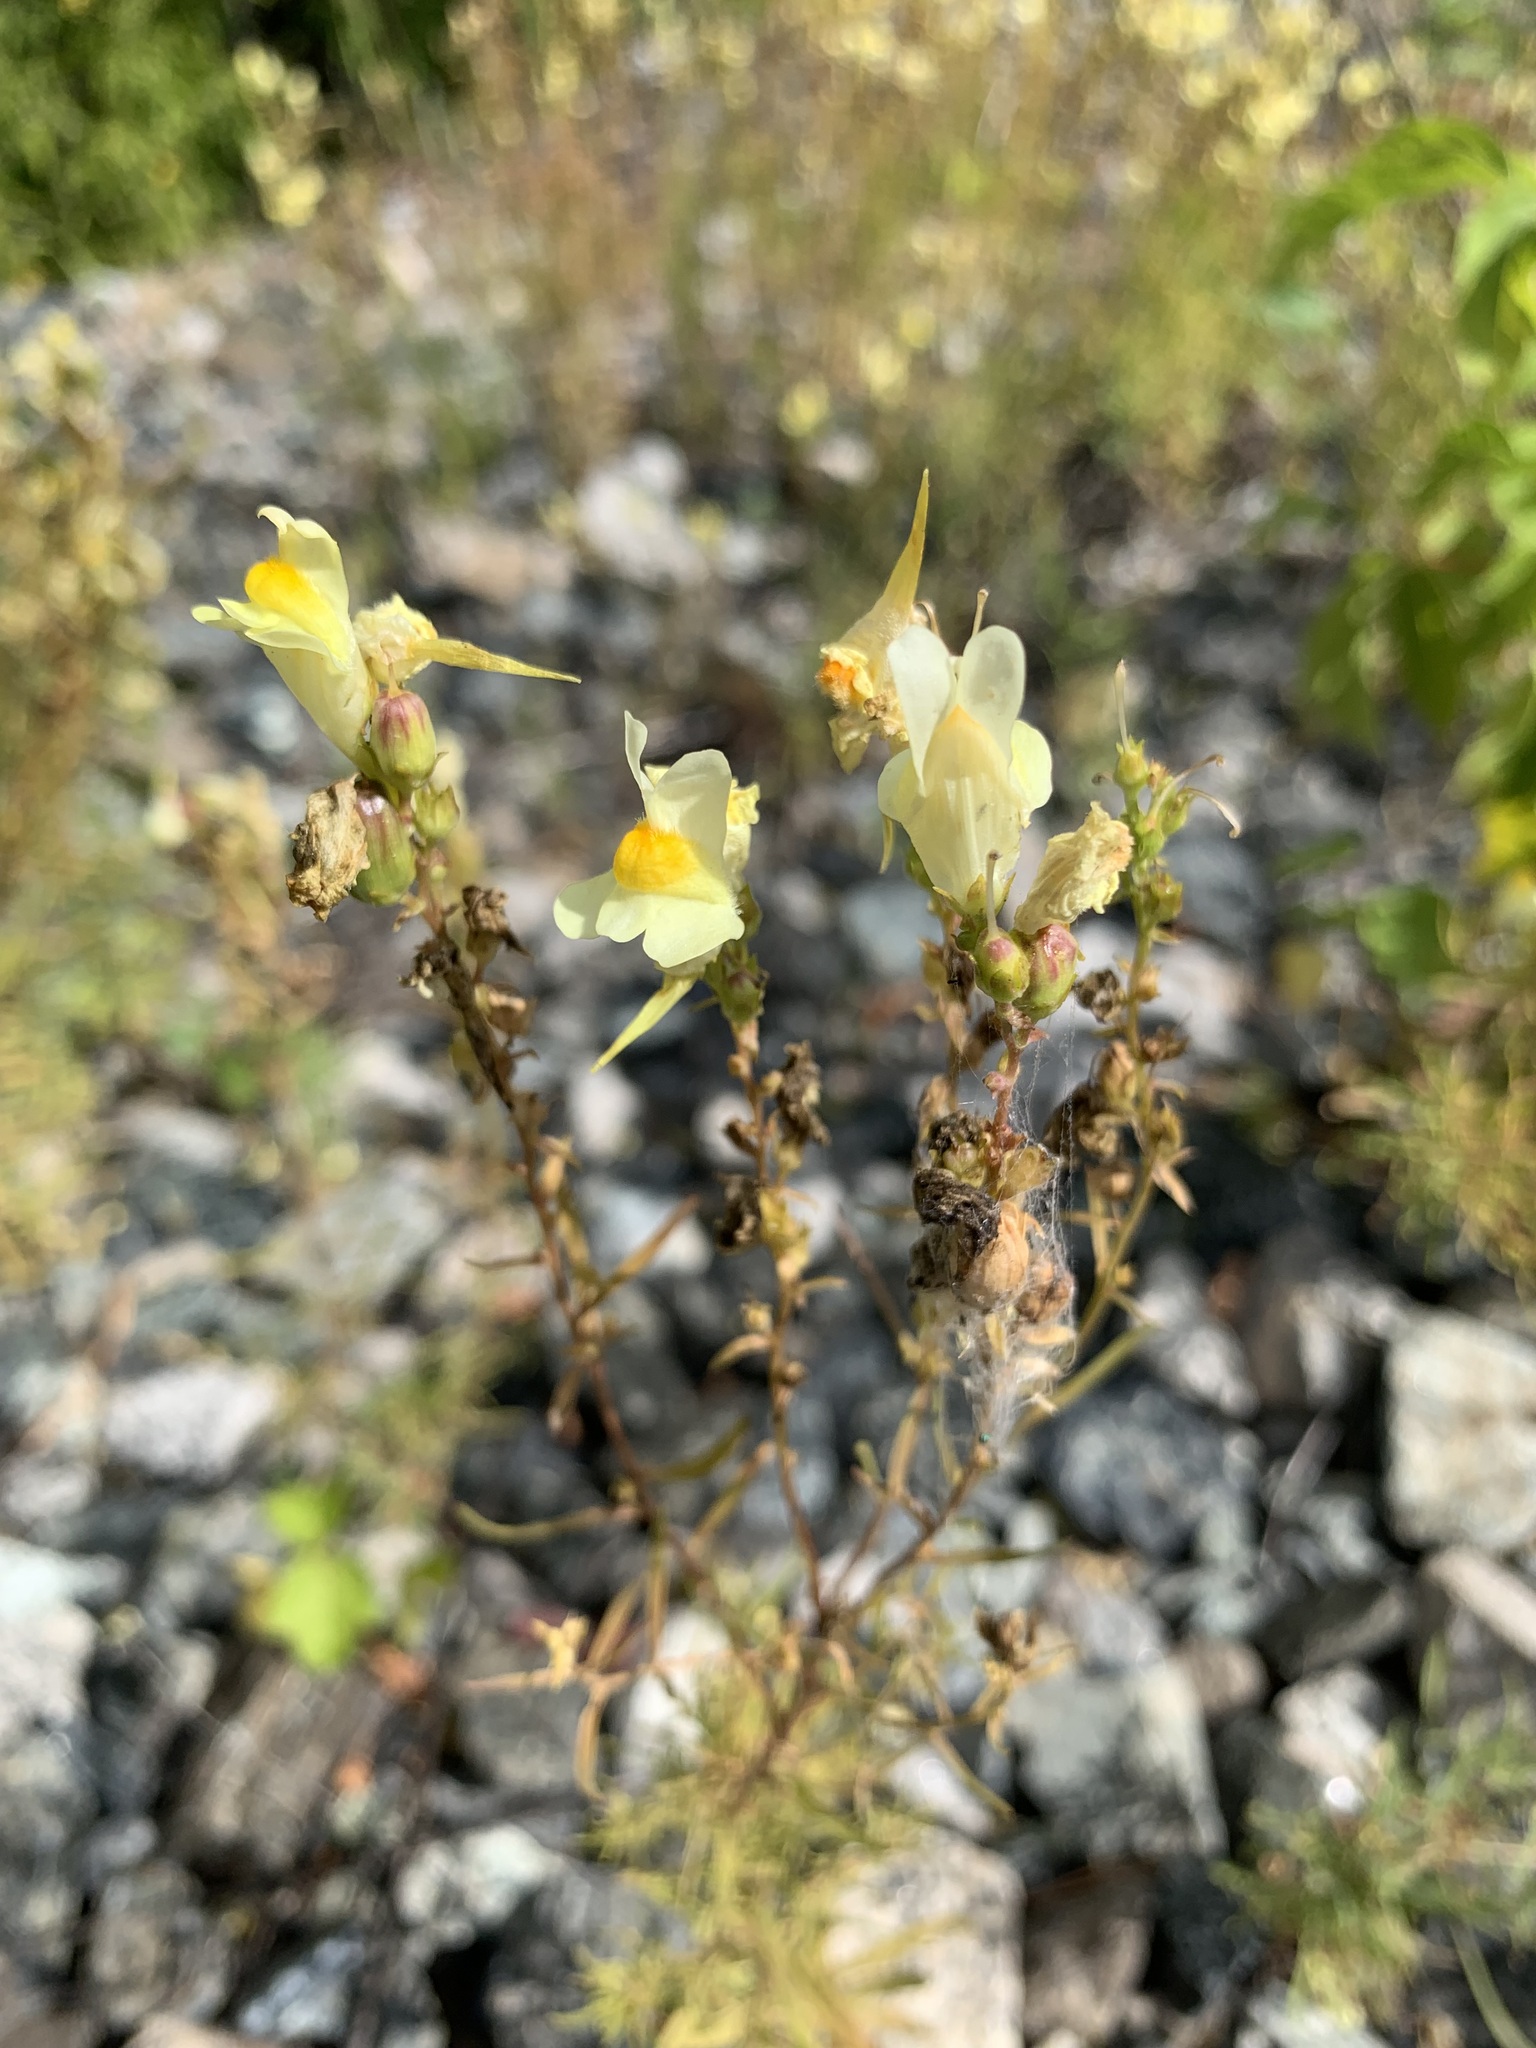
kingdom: Plantae
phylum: Tracheophyta
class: Magnoliopsida
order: Lamiales
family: Plantaginaceae
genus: Linaria
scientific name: Linaria vulgaris
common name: Butter and eggs
